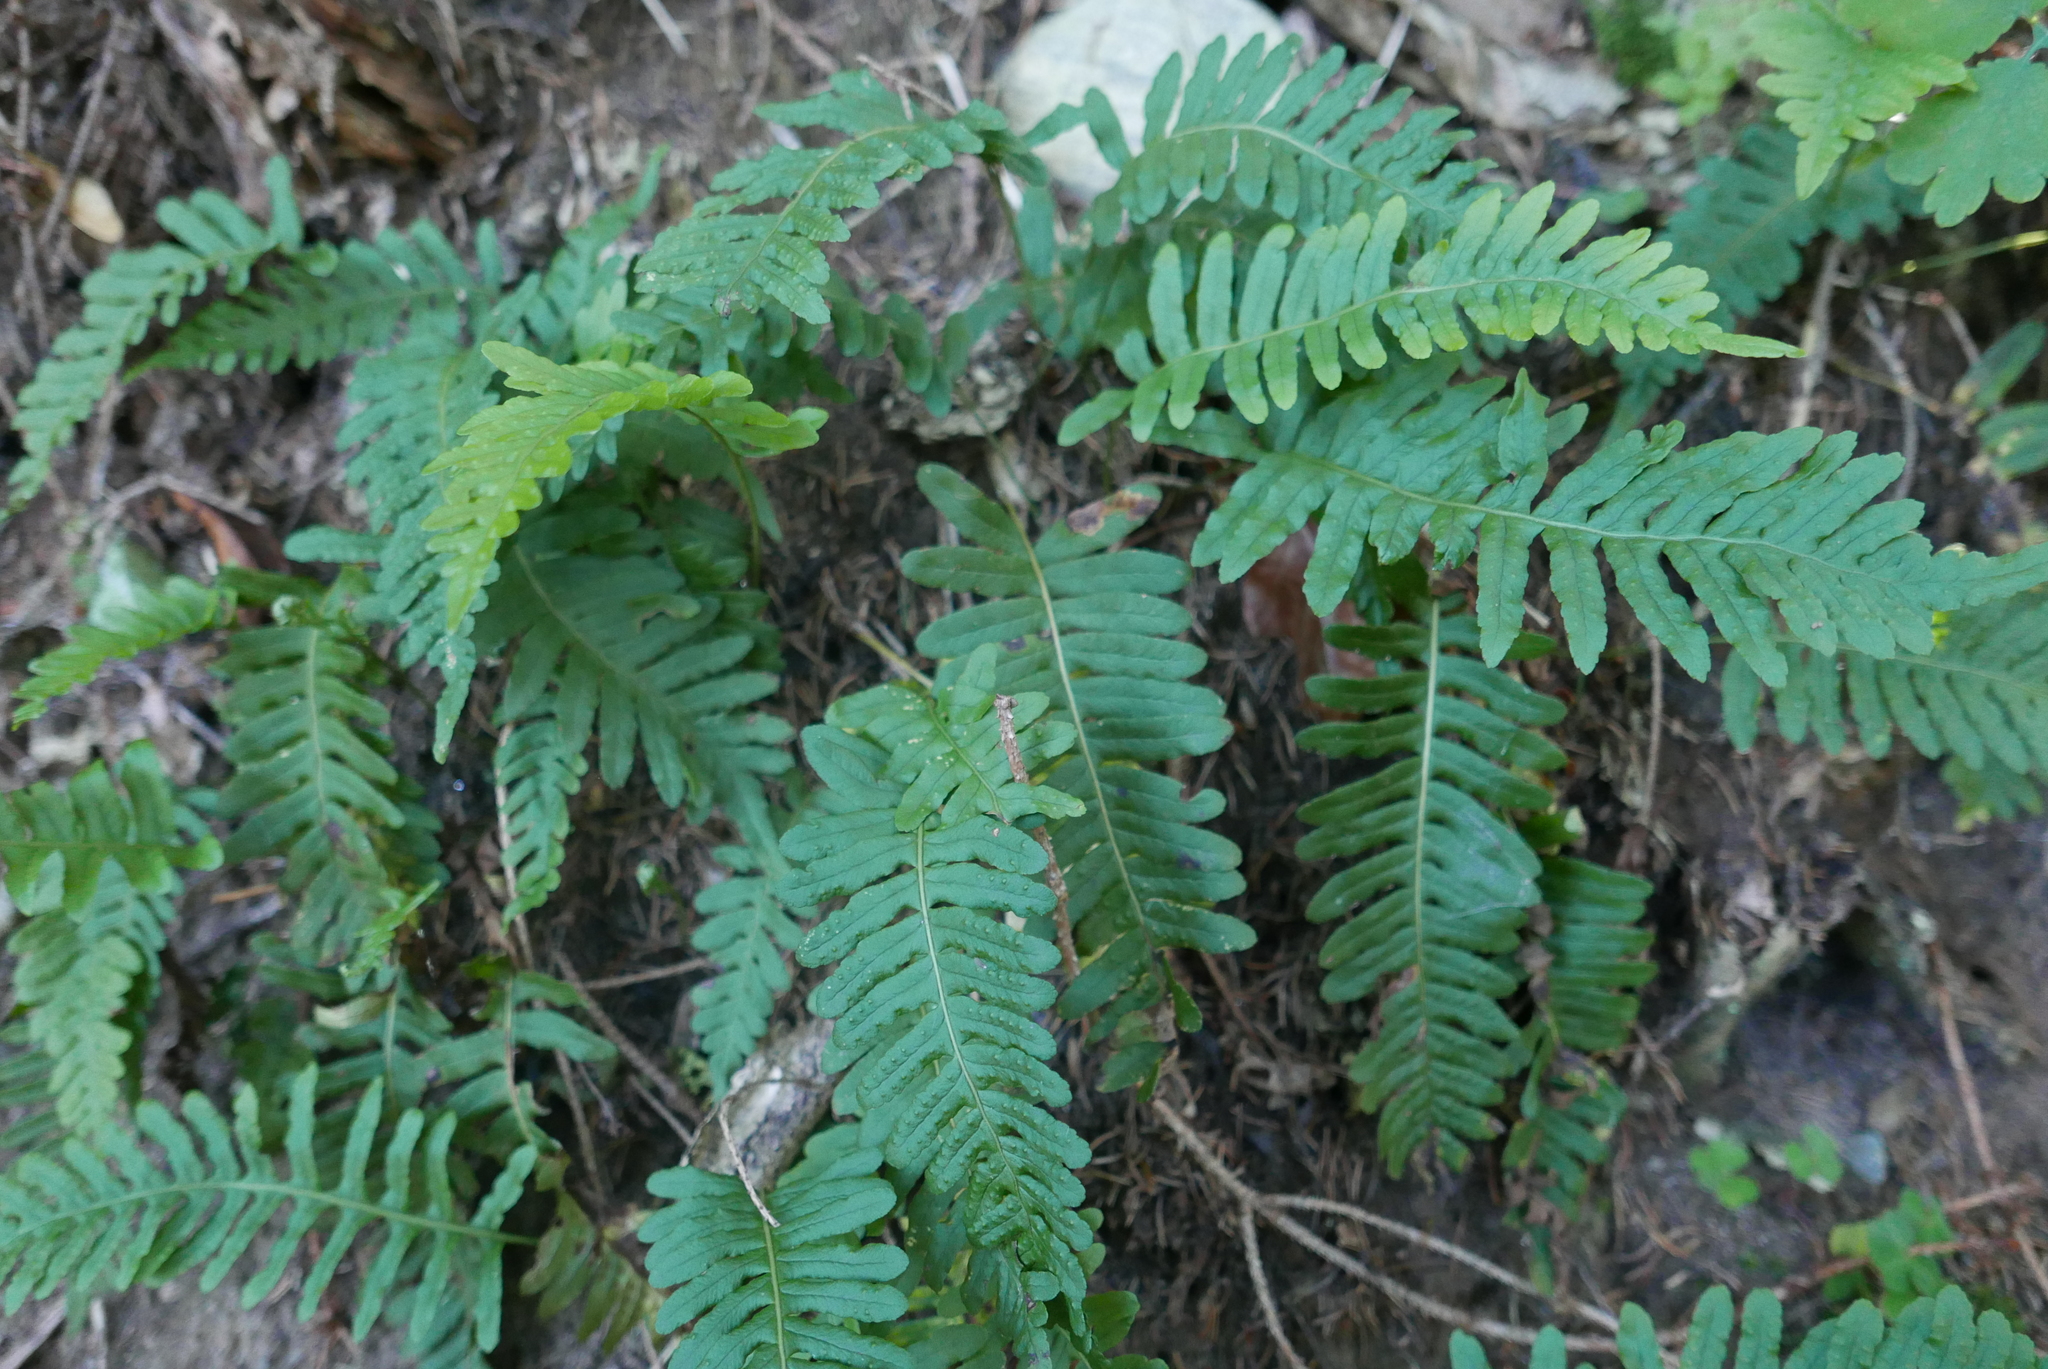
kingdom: Plantae
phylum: Tracheophyta
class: Polypodiopsida
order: Polypodiales
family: Polypodiaceae
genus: Polypodium
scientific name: Polypodium vulgare
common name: Common polypody
